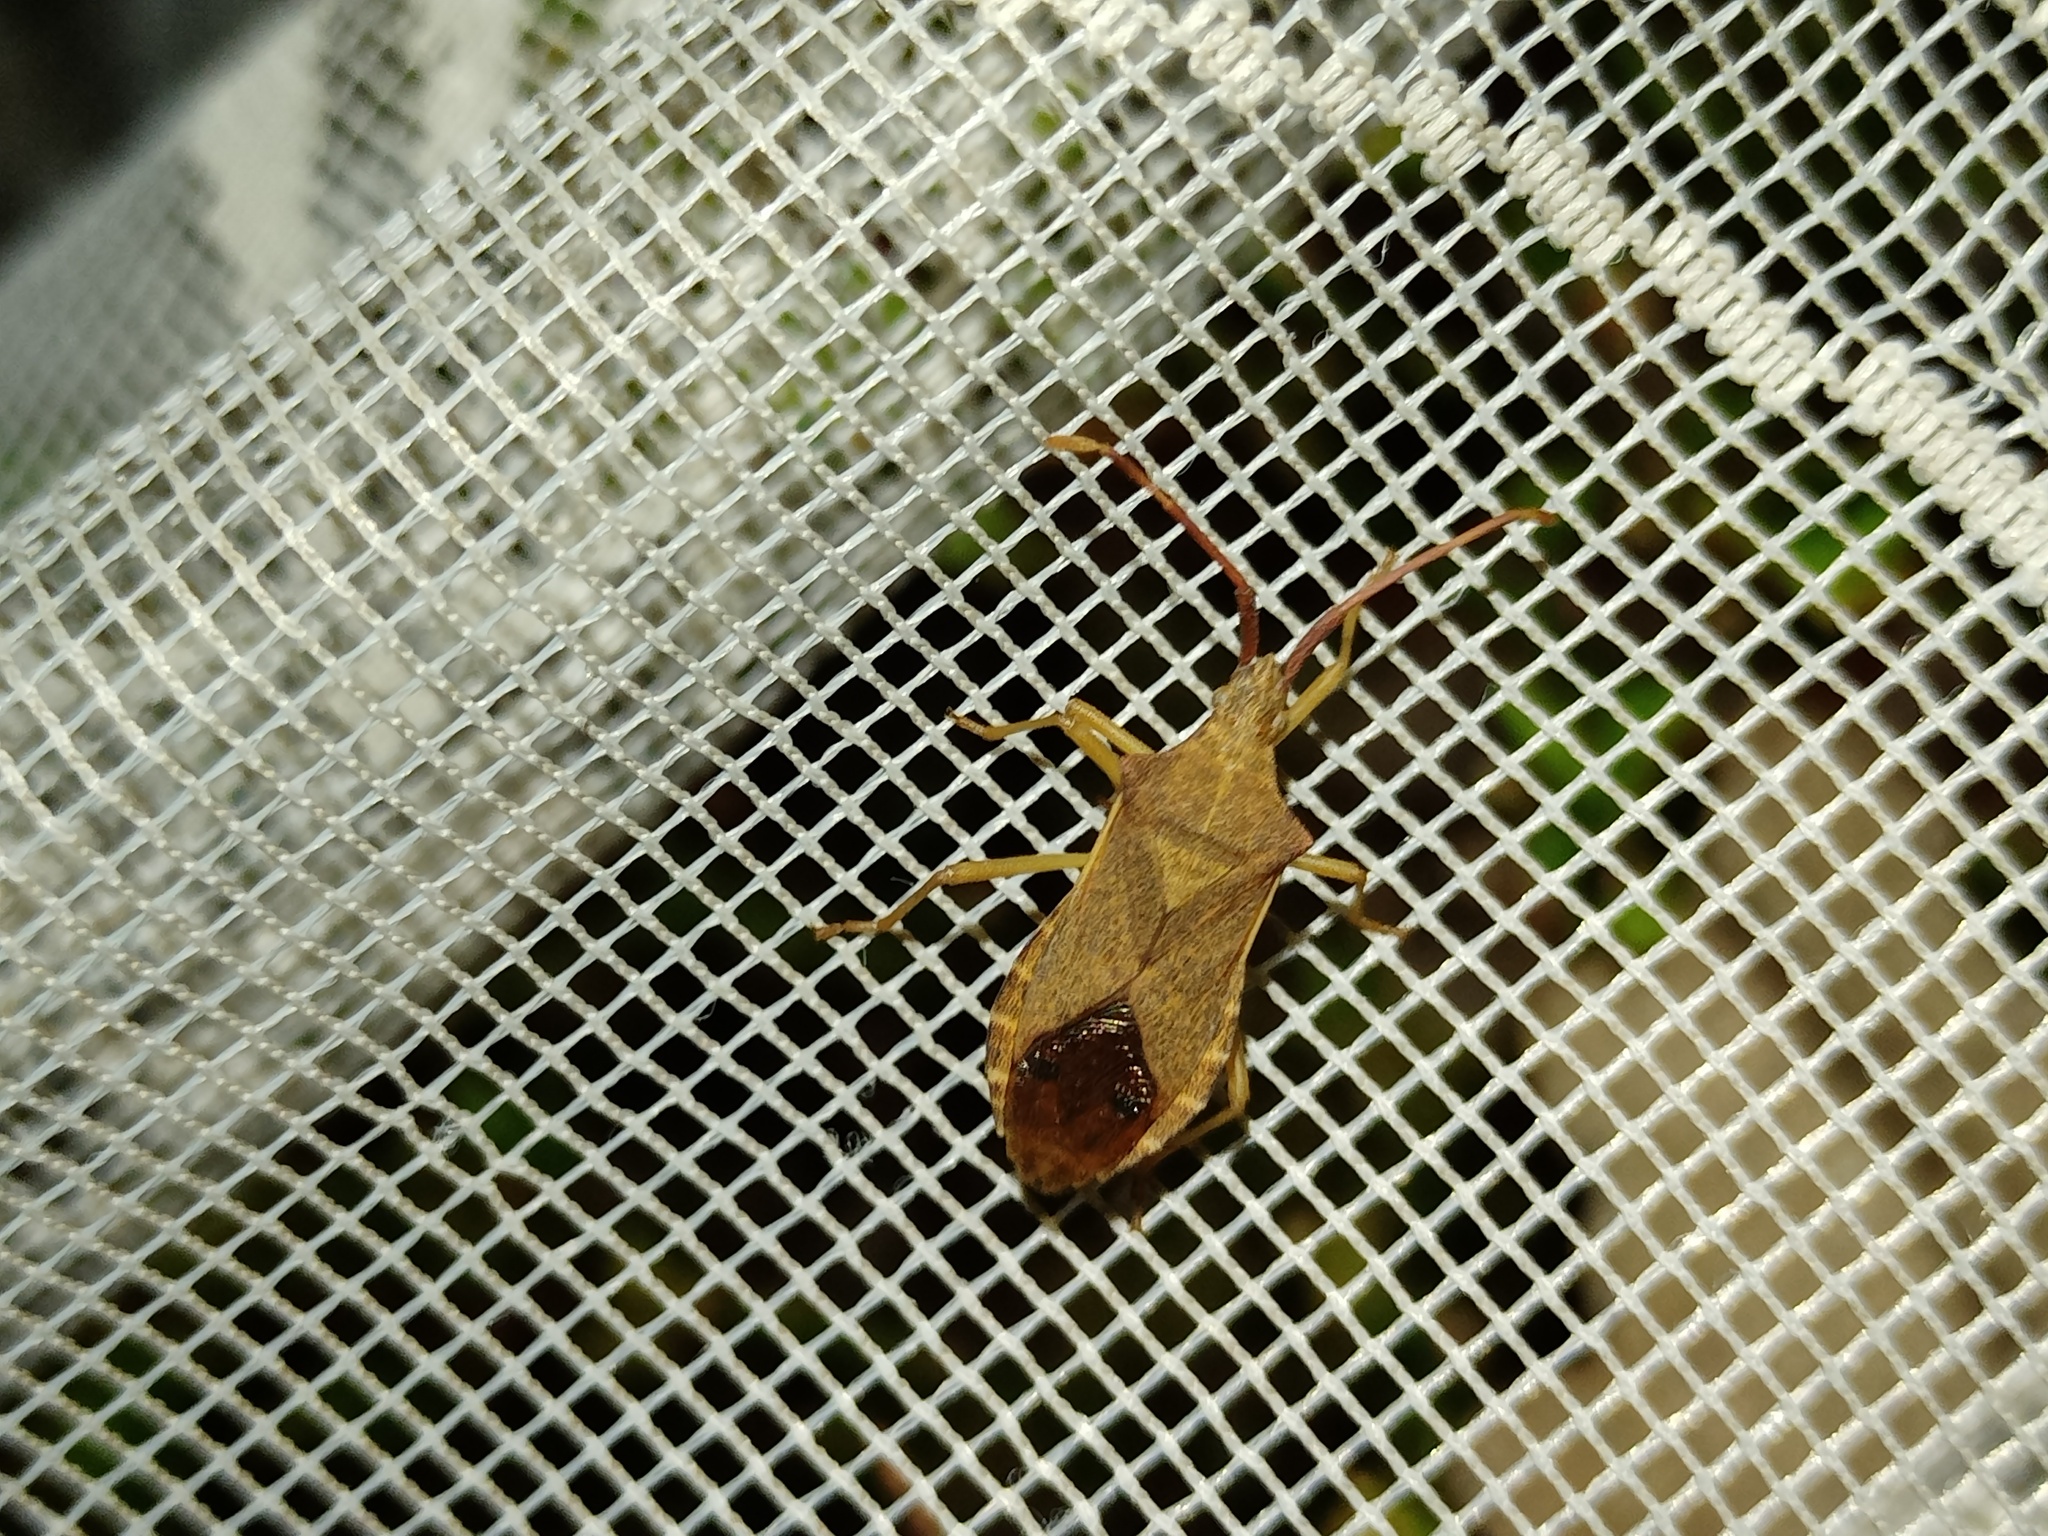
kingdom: Animalia
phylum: Arthropoda
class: Insecta
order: Hemiptera
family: Coreidae
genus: Gonocerus
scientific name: Gonocerus acuteangulatus
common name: Box bug
